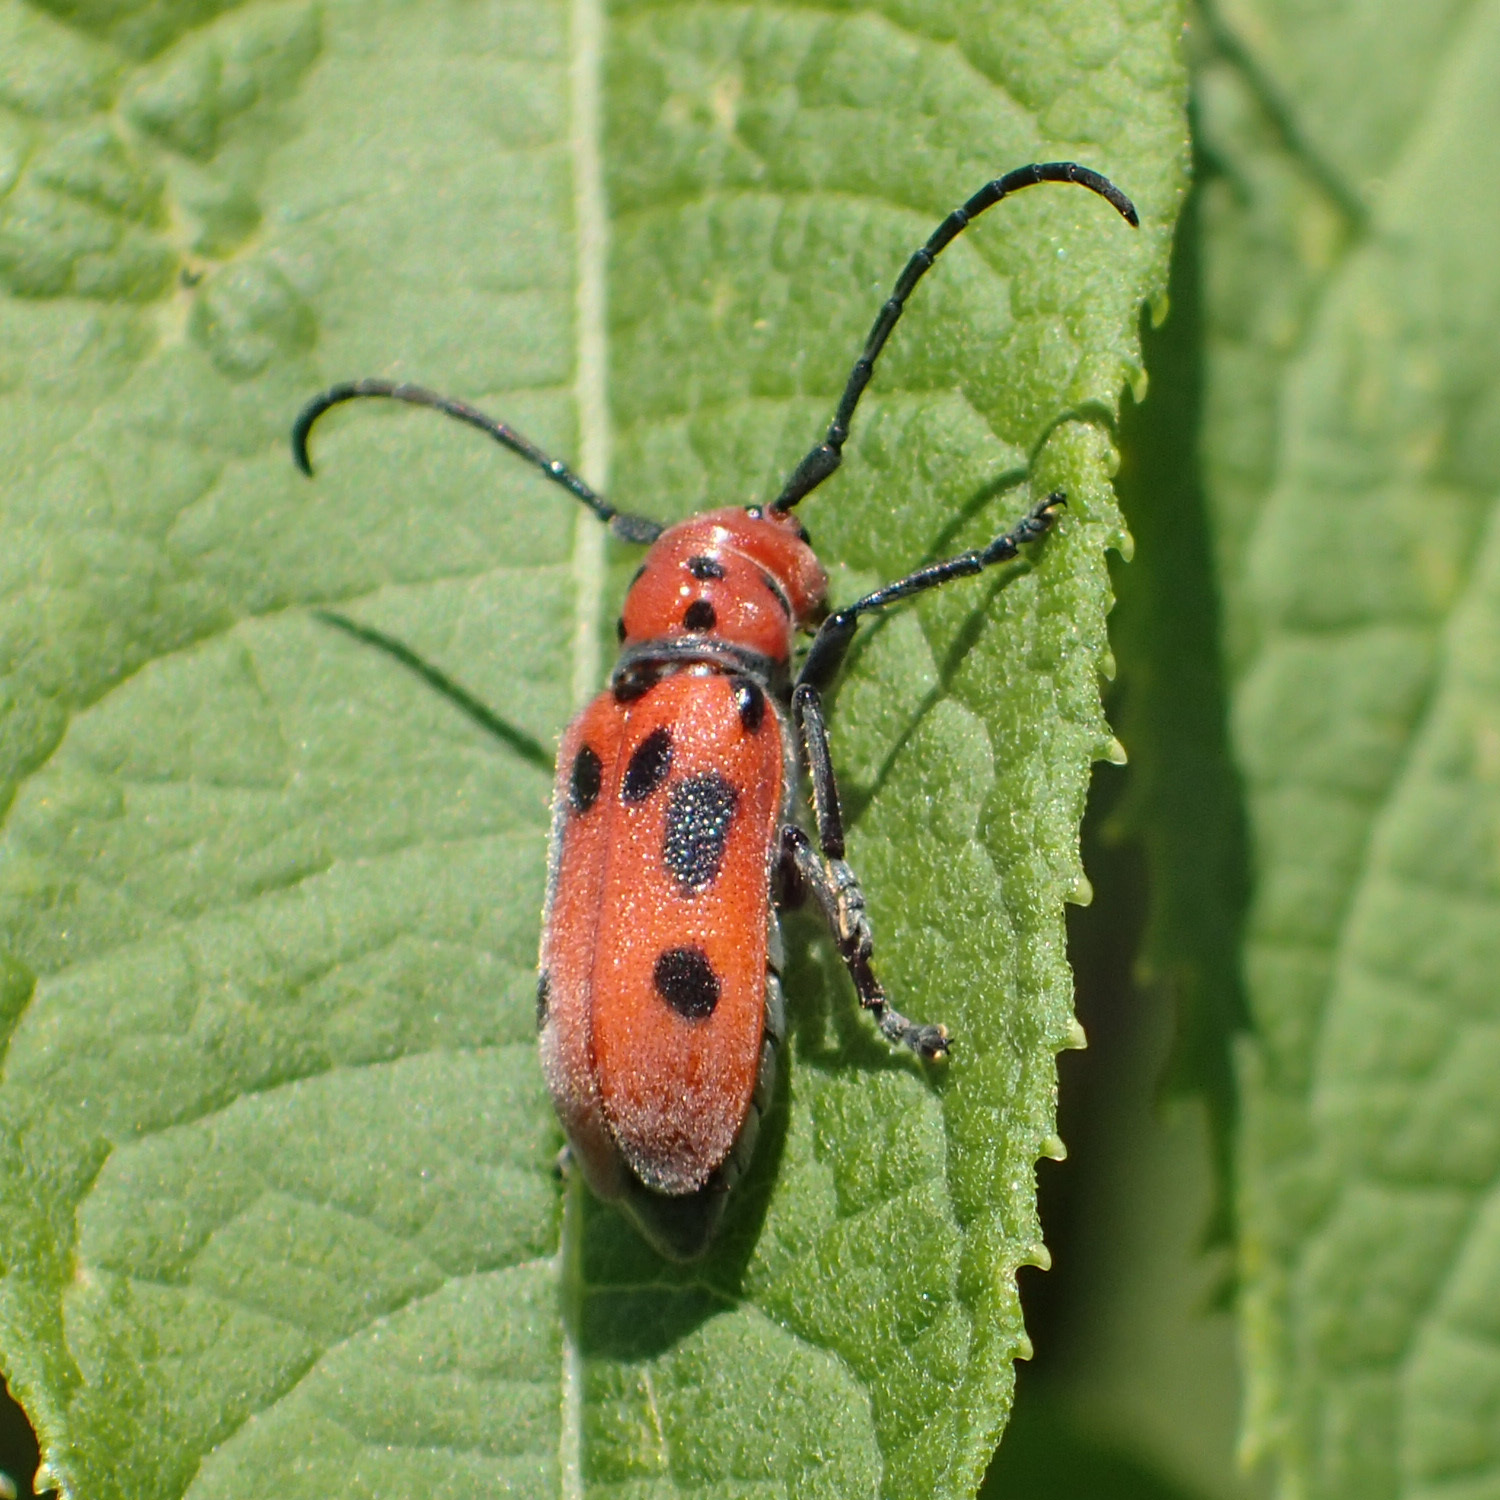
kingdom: Animalia
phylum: Arthropoda
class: Insecta
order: Coleoptera
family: Cerambycidae
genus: Tetraopes
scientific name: Tetraopes tetrophthalmus
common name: Red milkweed beetle
